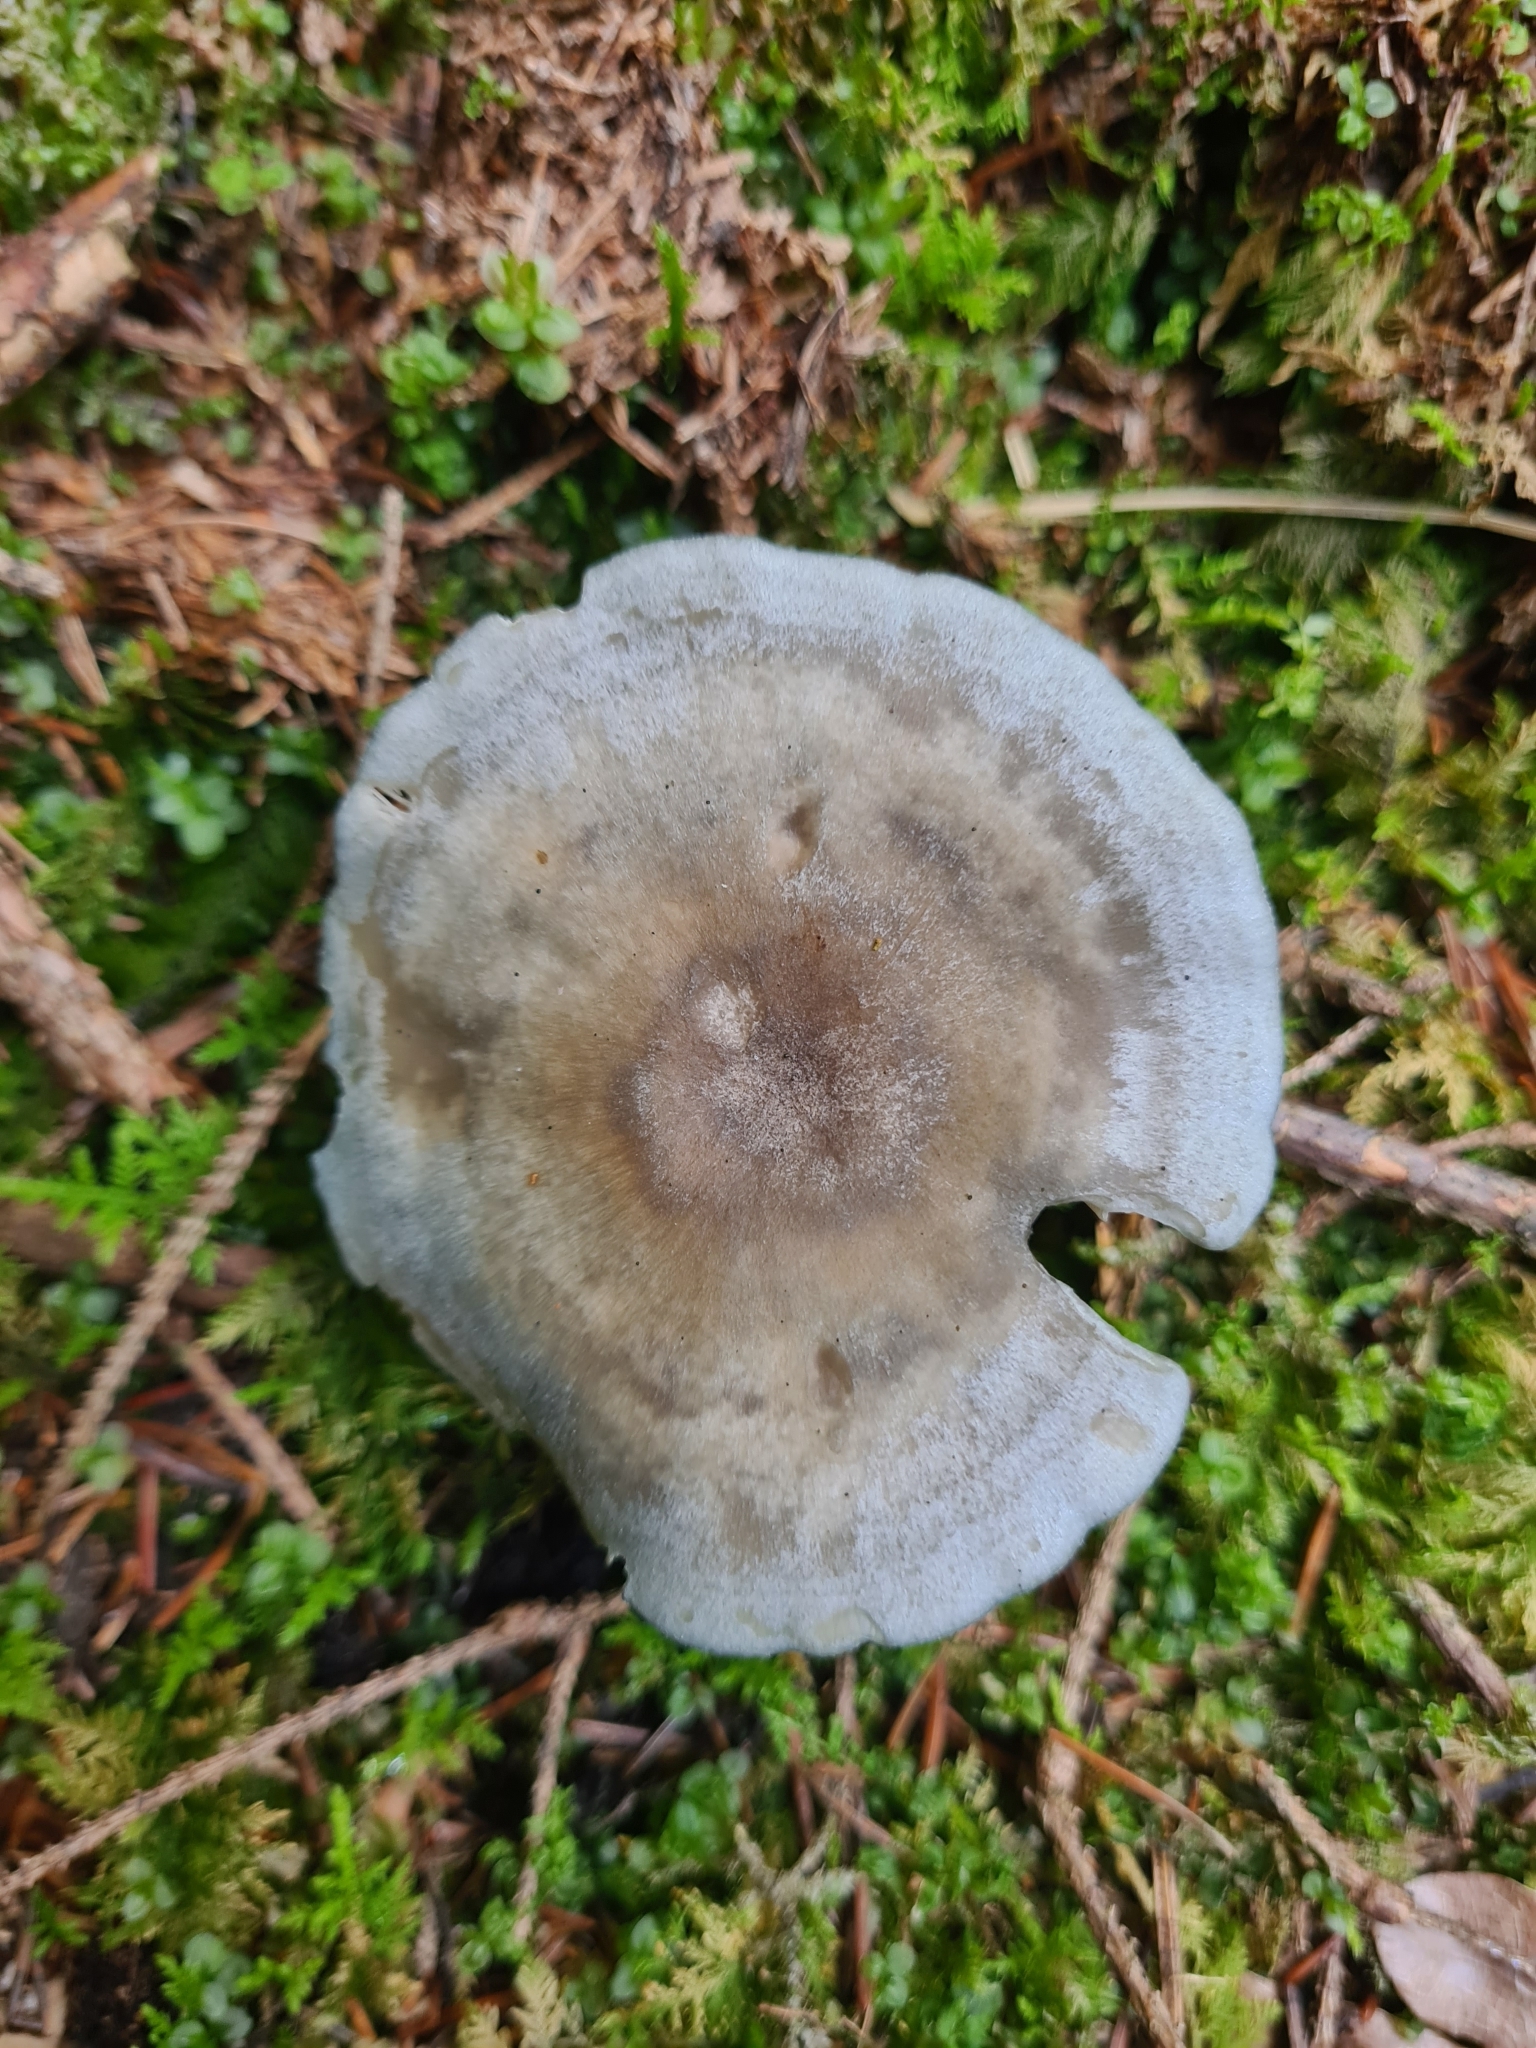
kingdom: Fungi
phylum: Basidiomycota
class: Agaricomycetes
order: Agaricales
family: Tricholomataceae
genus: Collybia
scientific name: Collybia
